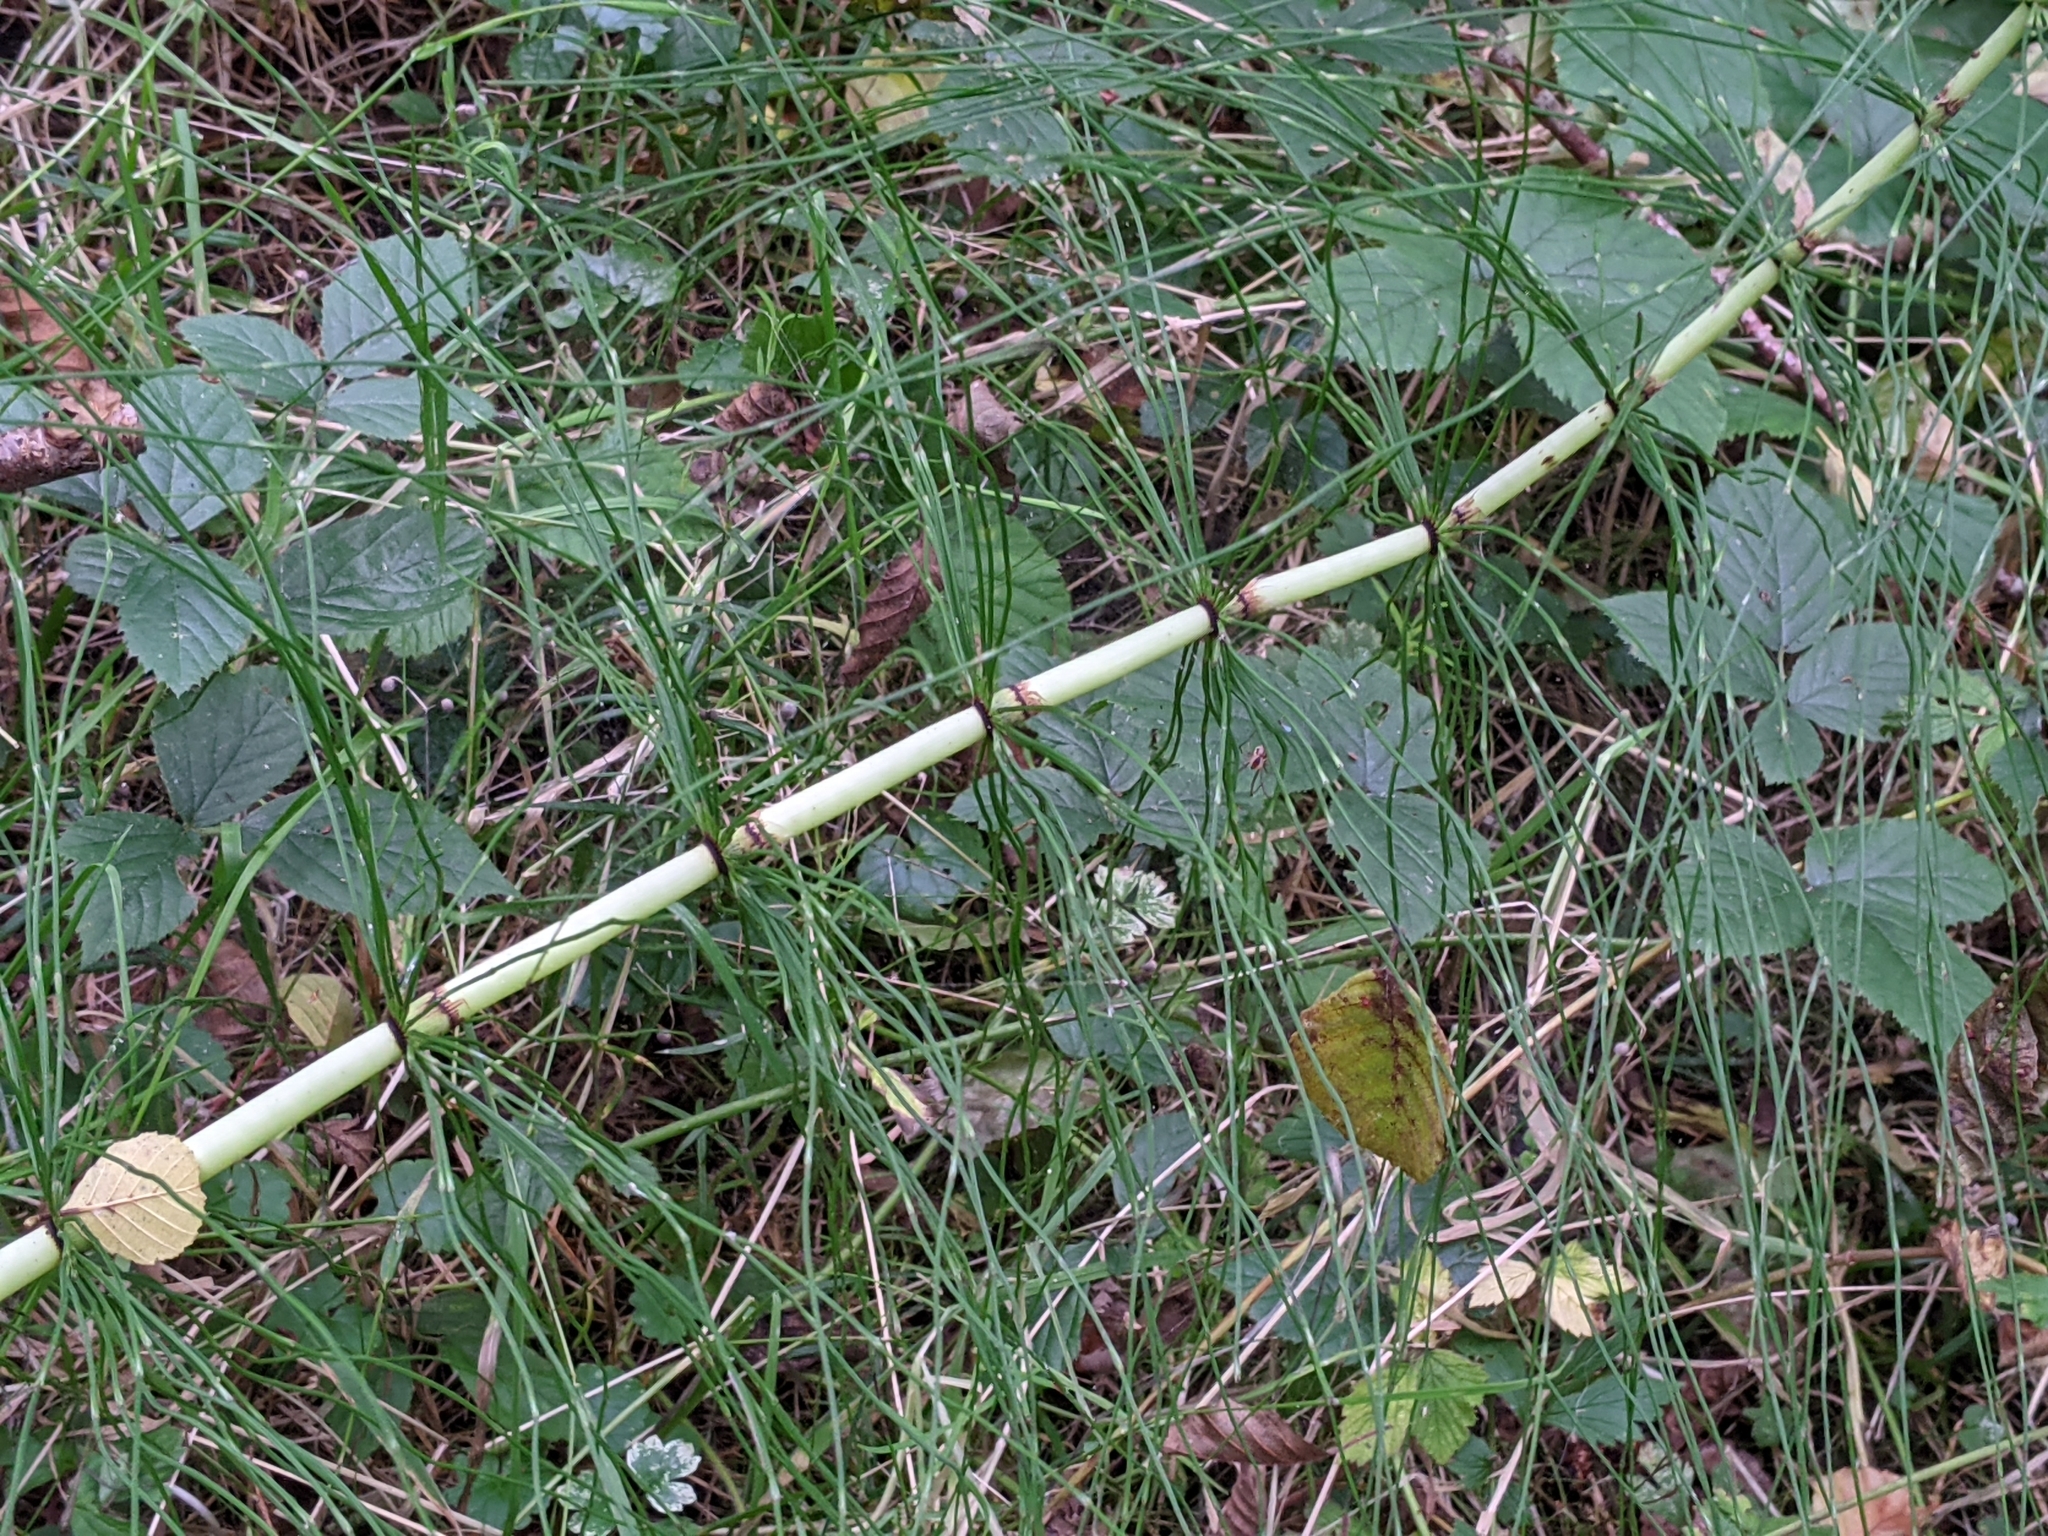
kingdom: Plantae
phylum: Tracheophyta
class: Polypodiopsida
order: Equisetales
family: Equisetaceae
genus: Equisetum
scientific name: Equisetum telmateia
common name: Great horsetail
